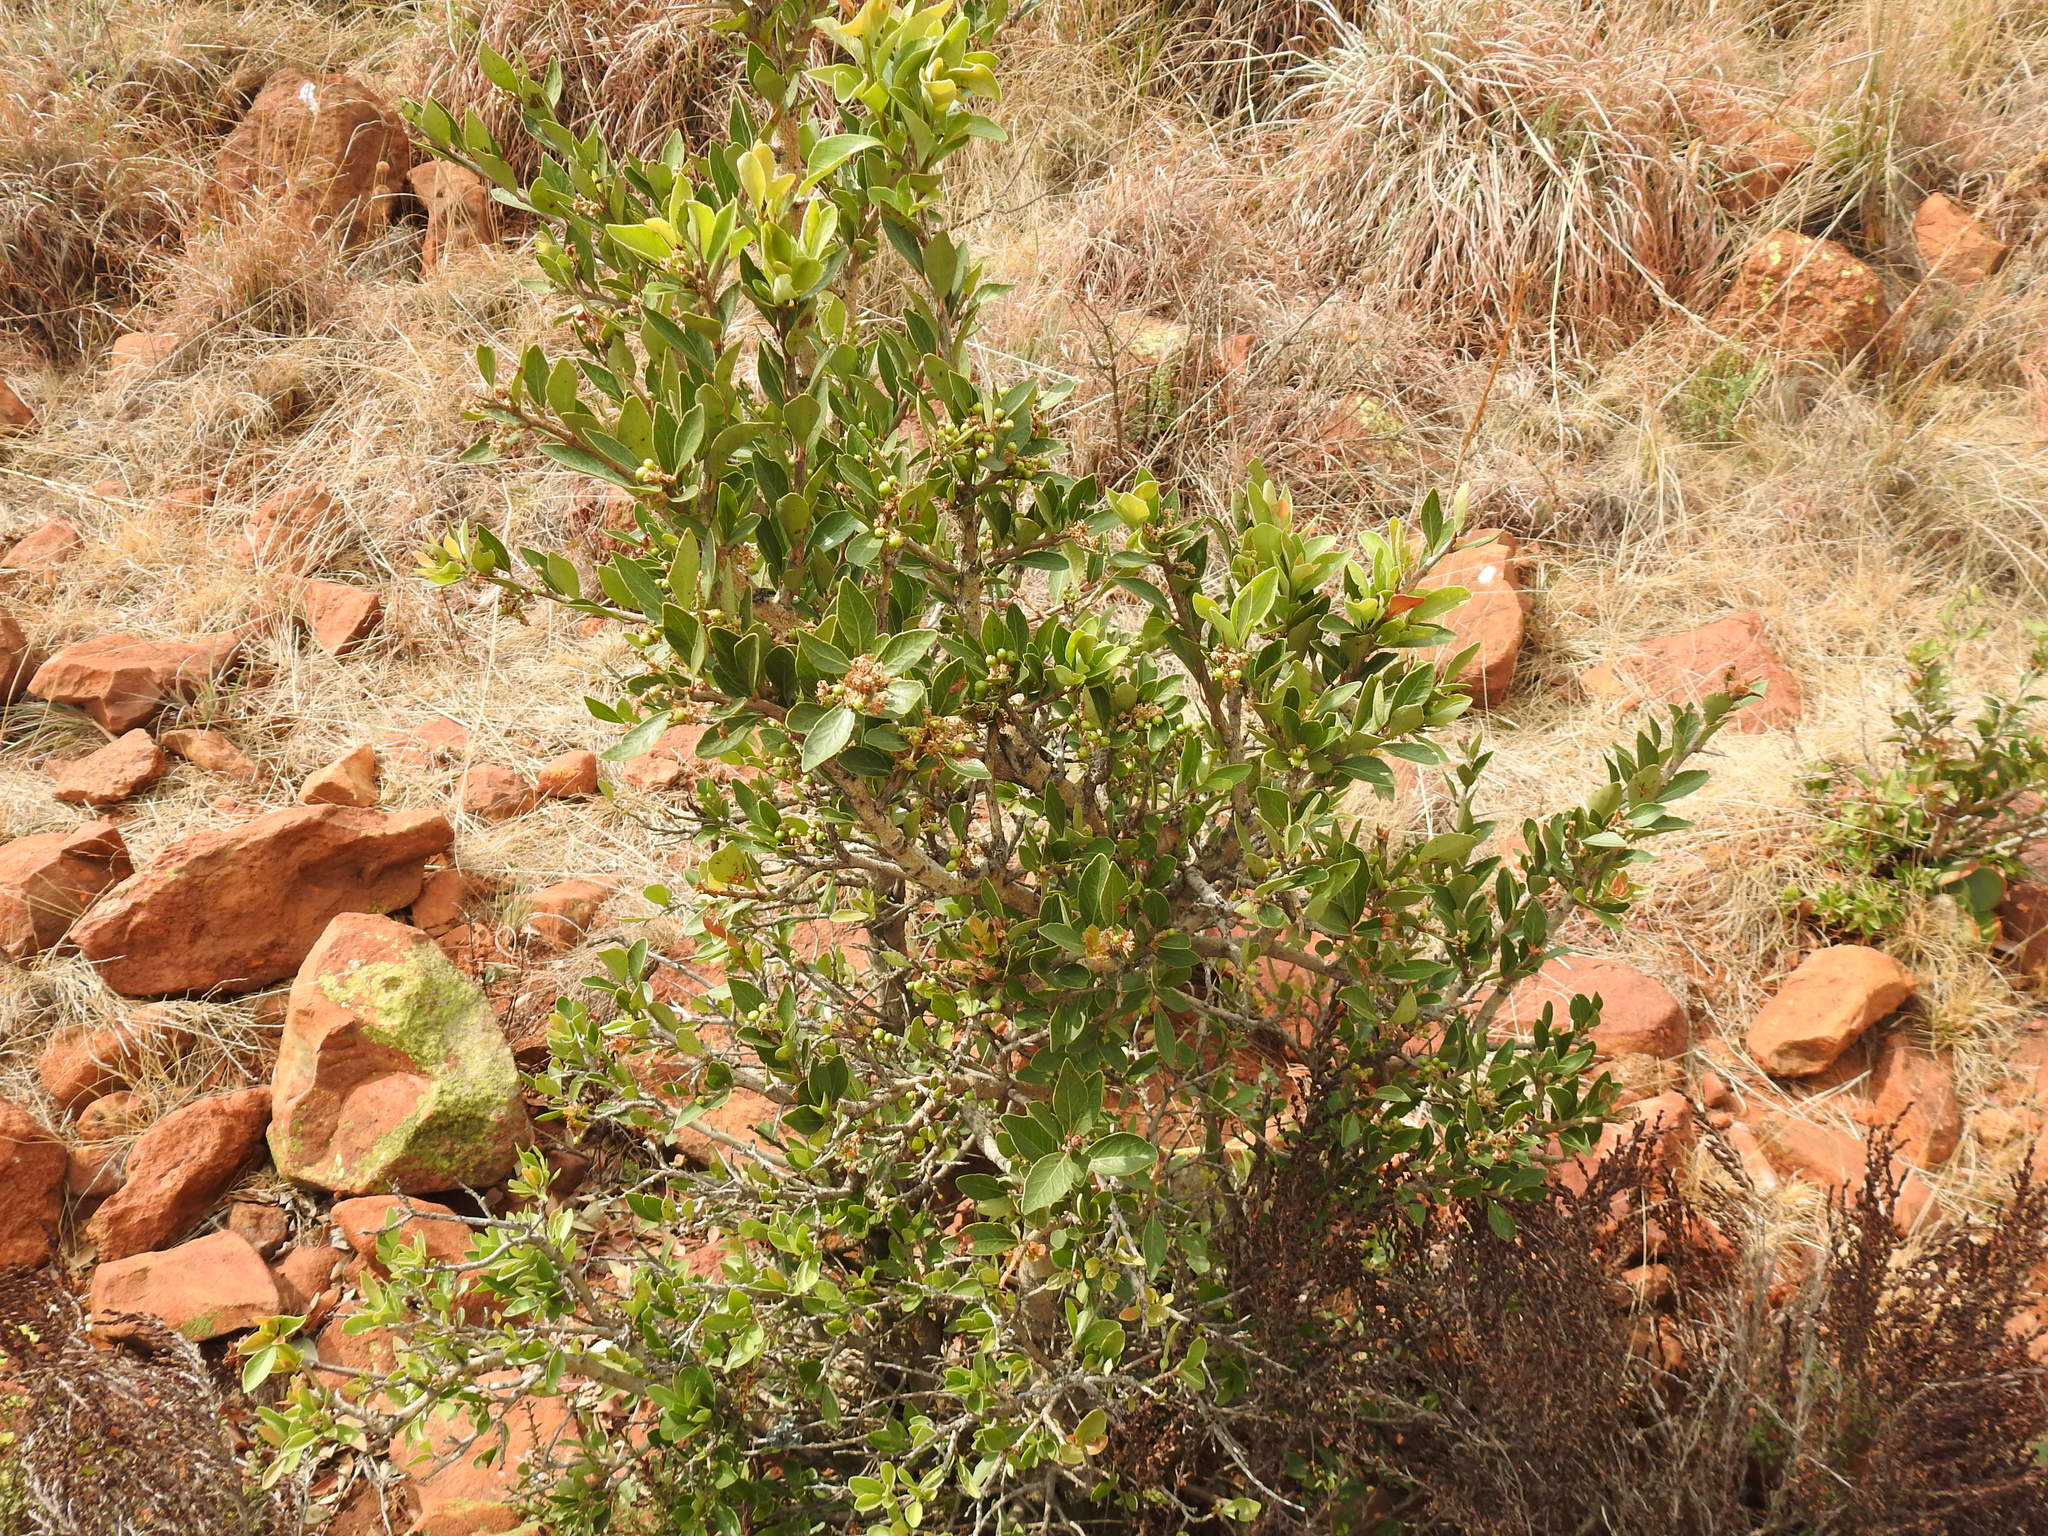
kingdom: Plantae
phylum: Tracheophyta
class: Magnoliopsida
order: Malpighiales
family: Salicaceae
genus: Scolopia
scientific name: Scolopia zeyheri
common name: Thorn pear
